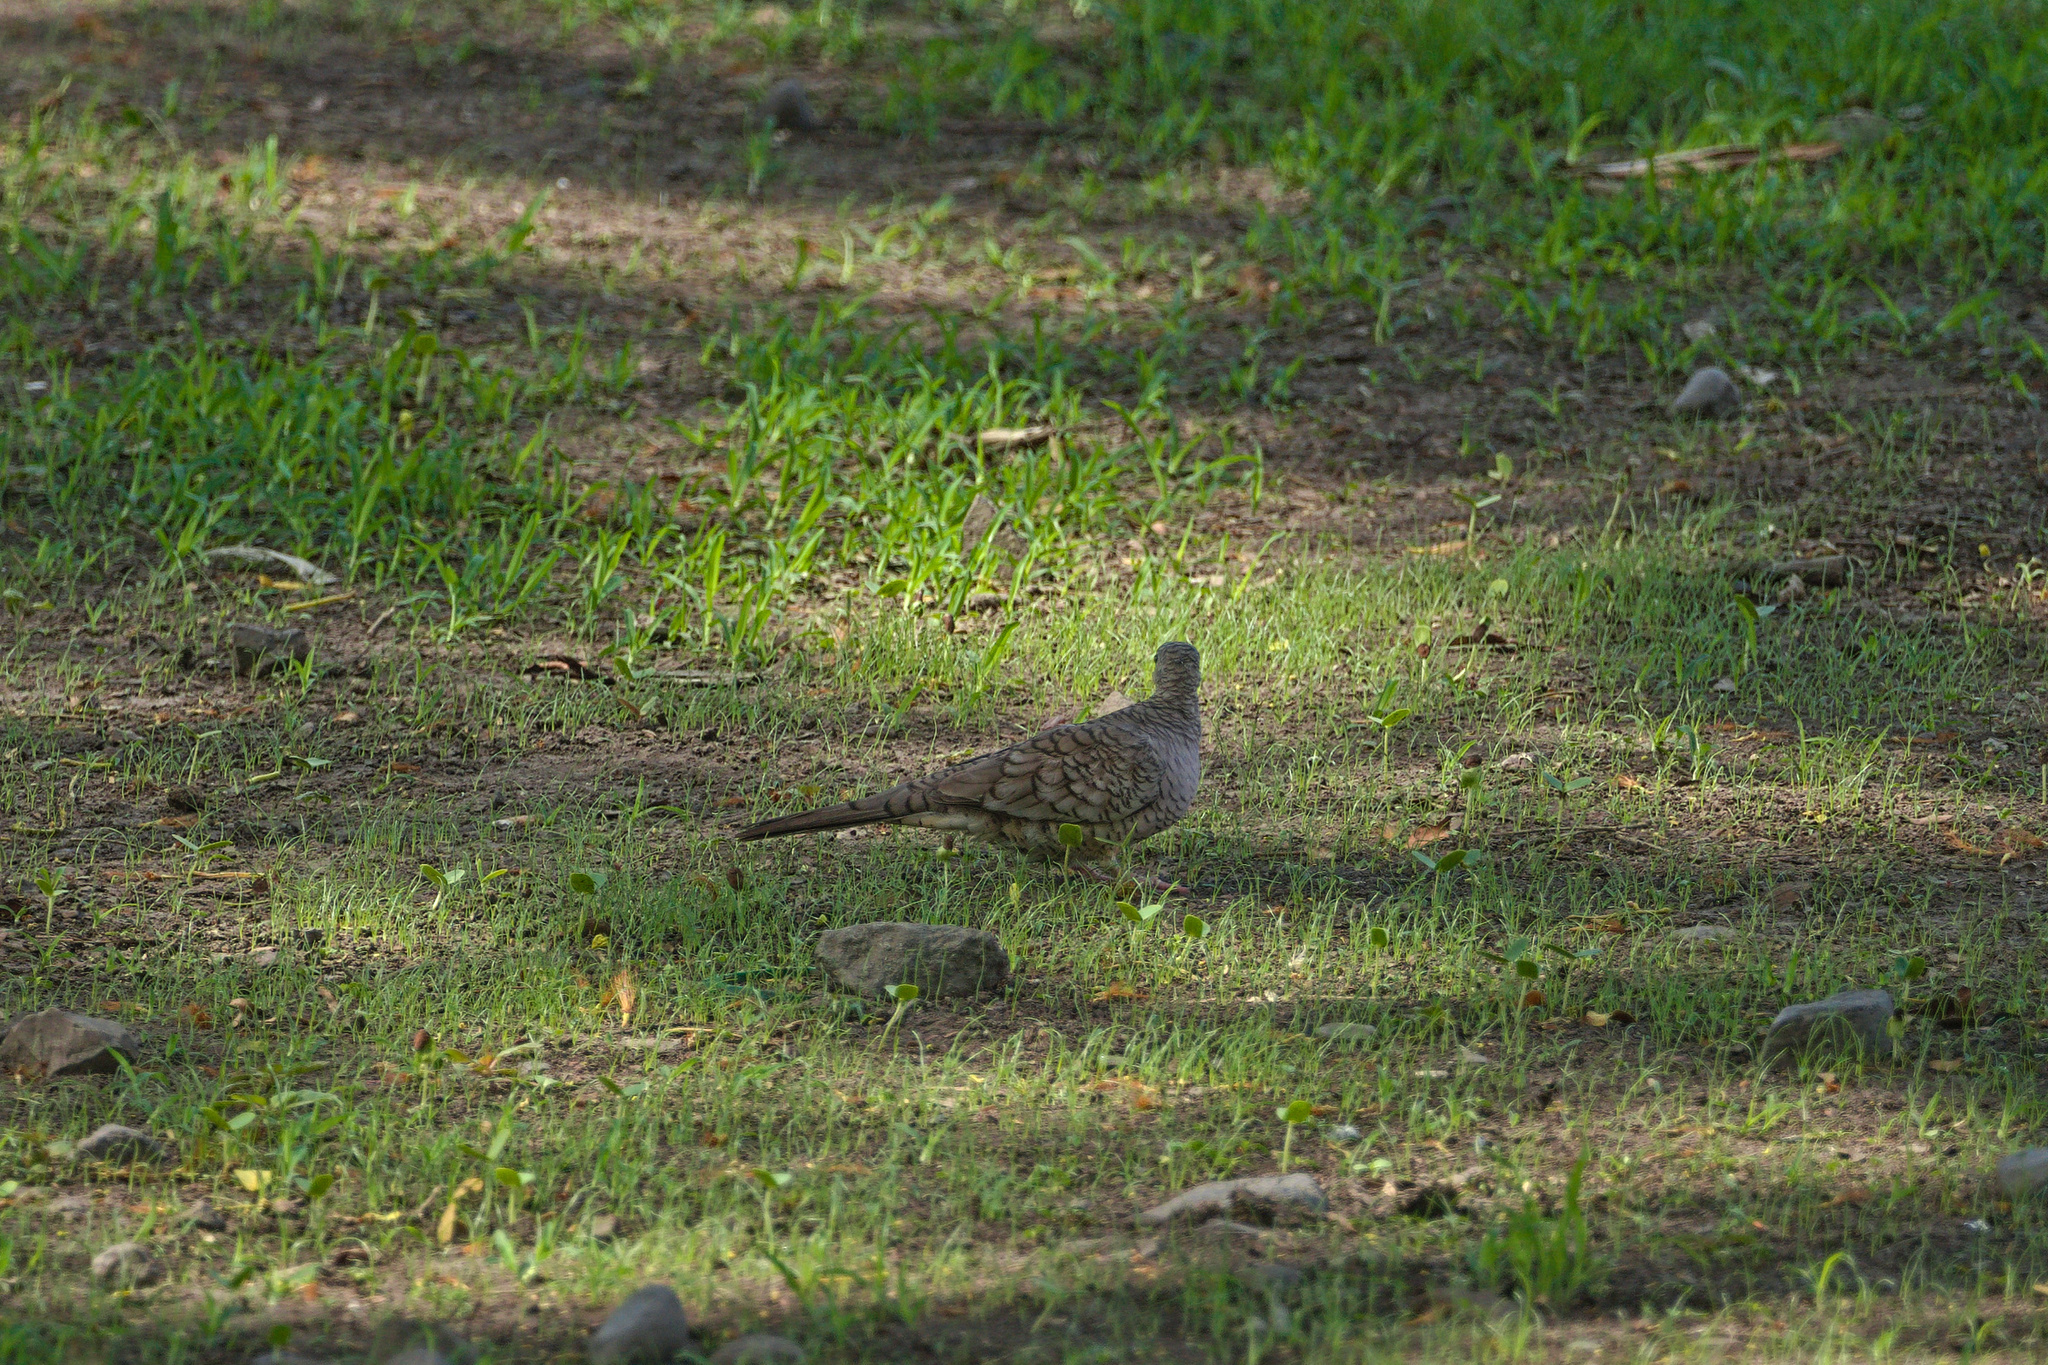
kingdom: Animalia
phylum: Chordata
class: Aves
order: Columbiformes
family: Columbidae
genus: Columbina
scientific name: Columbina inca
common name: Inca dove
